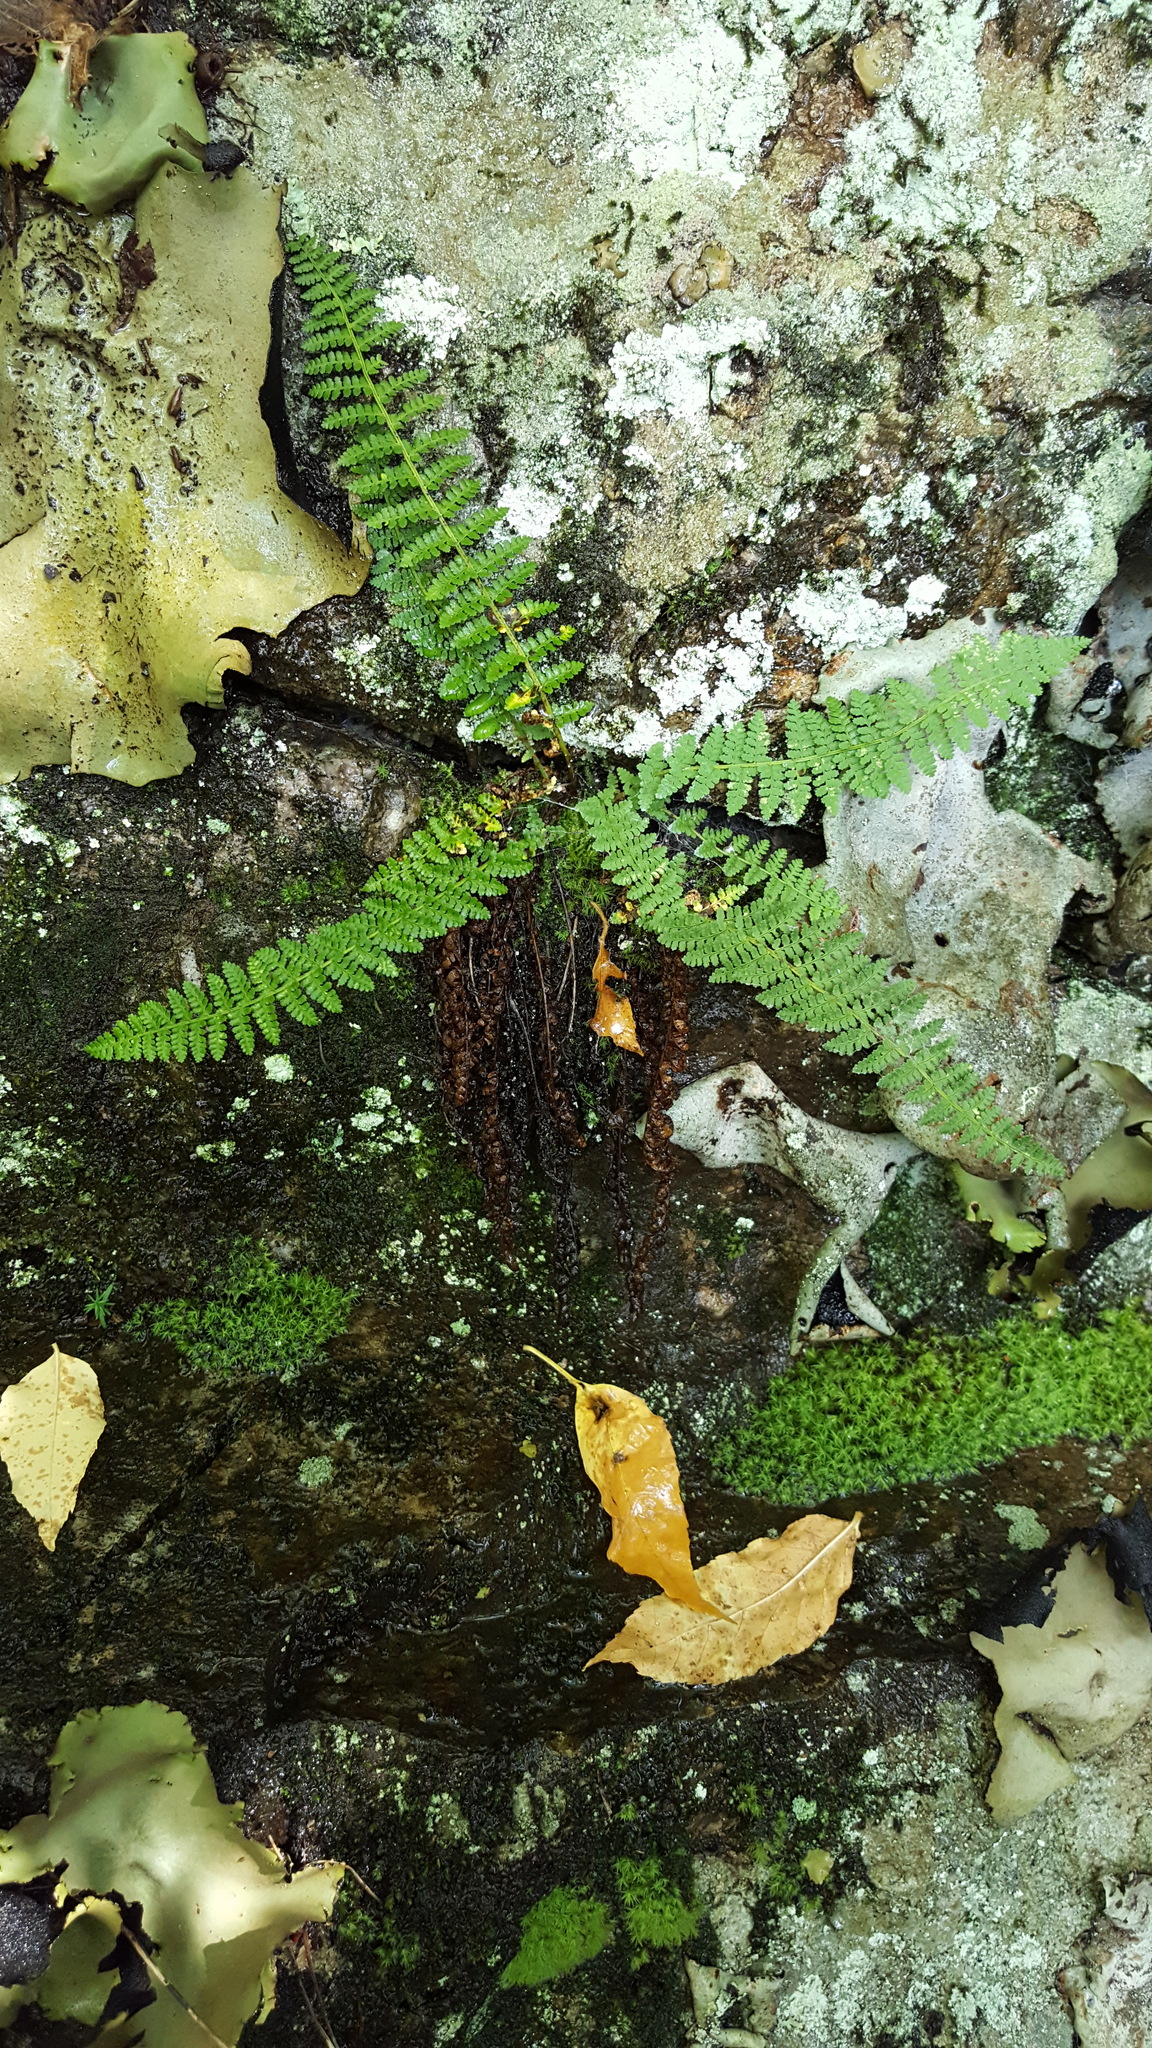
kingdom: Plantae
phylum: Tracheophyta
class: Polypodiopsida
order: Polypodiales
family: Dryopteridaceae
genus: Dryopteris
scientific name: Dryopteris fragrans
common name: Fragrant wood fern
